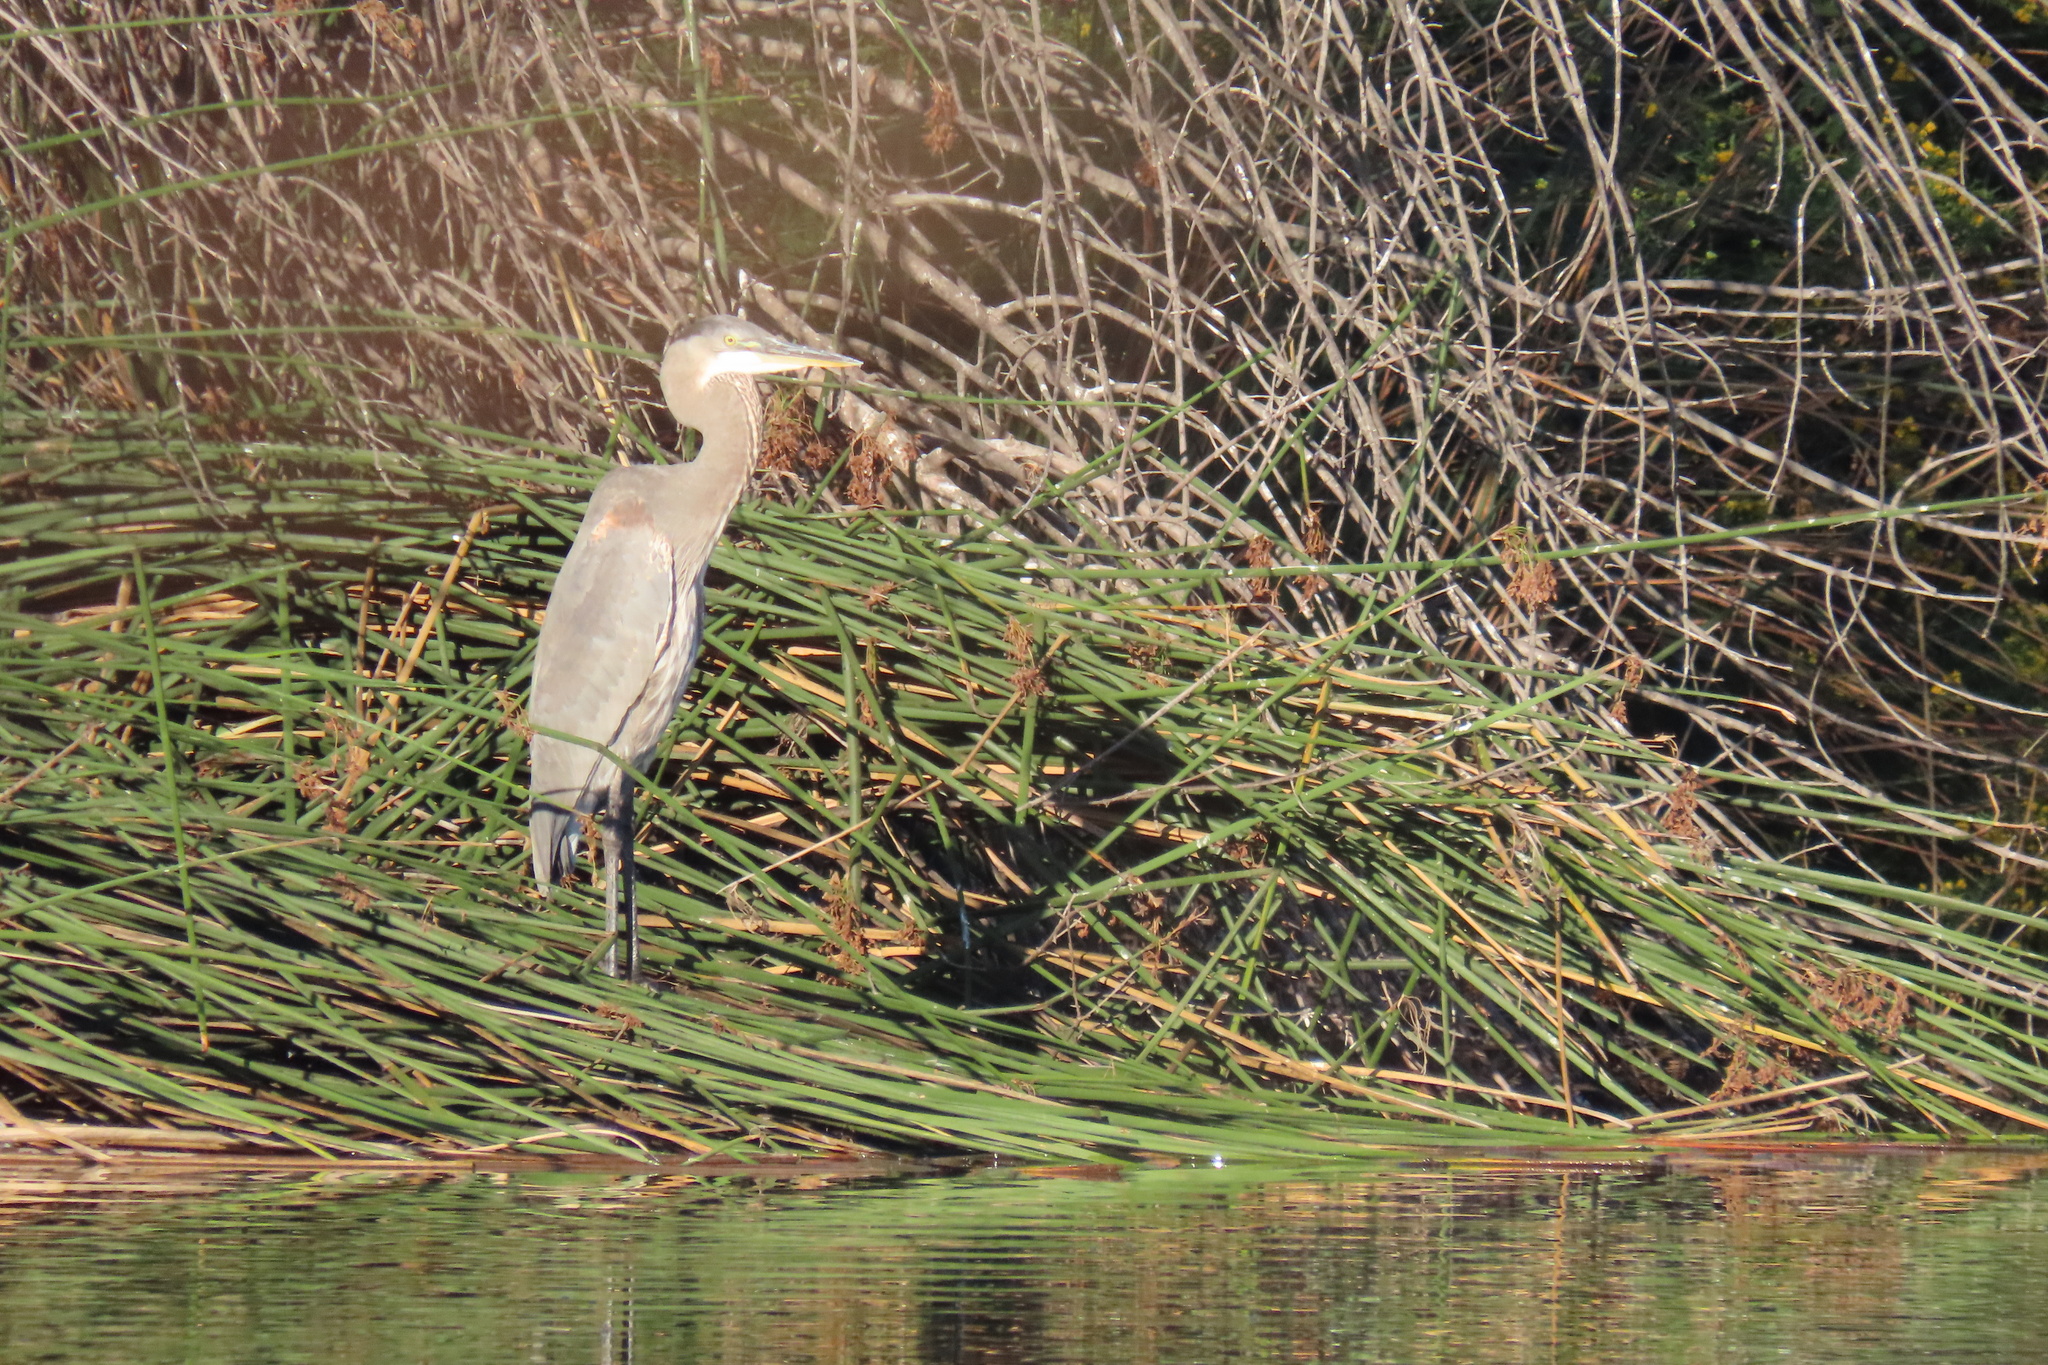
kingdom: Animalia
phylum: Chordata
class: Aves
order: Pelecaniformes
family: Ardeidae
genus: Ardea
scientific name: Ardea herodias
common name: Great blue heron
